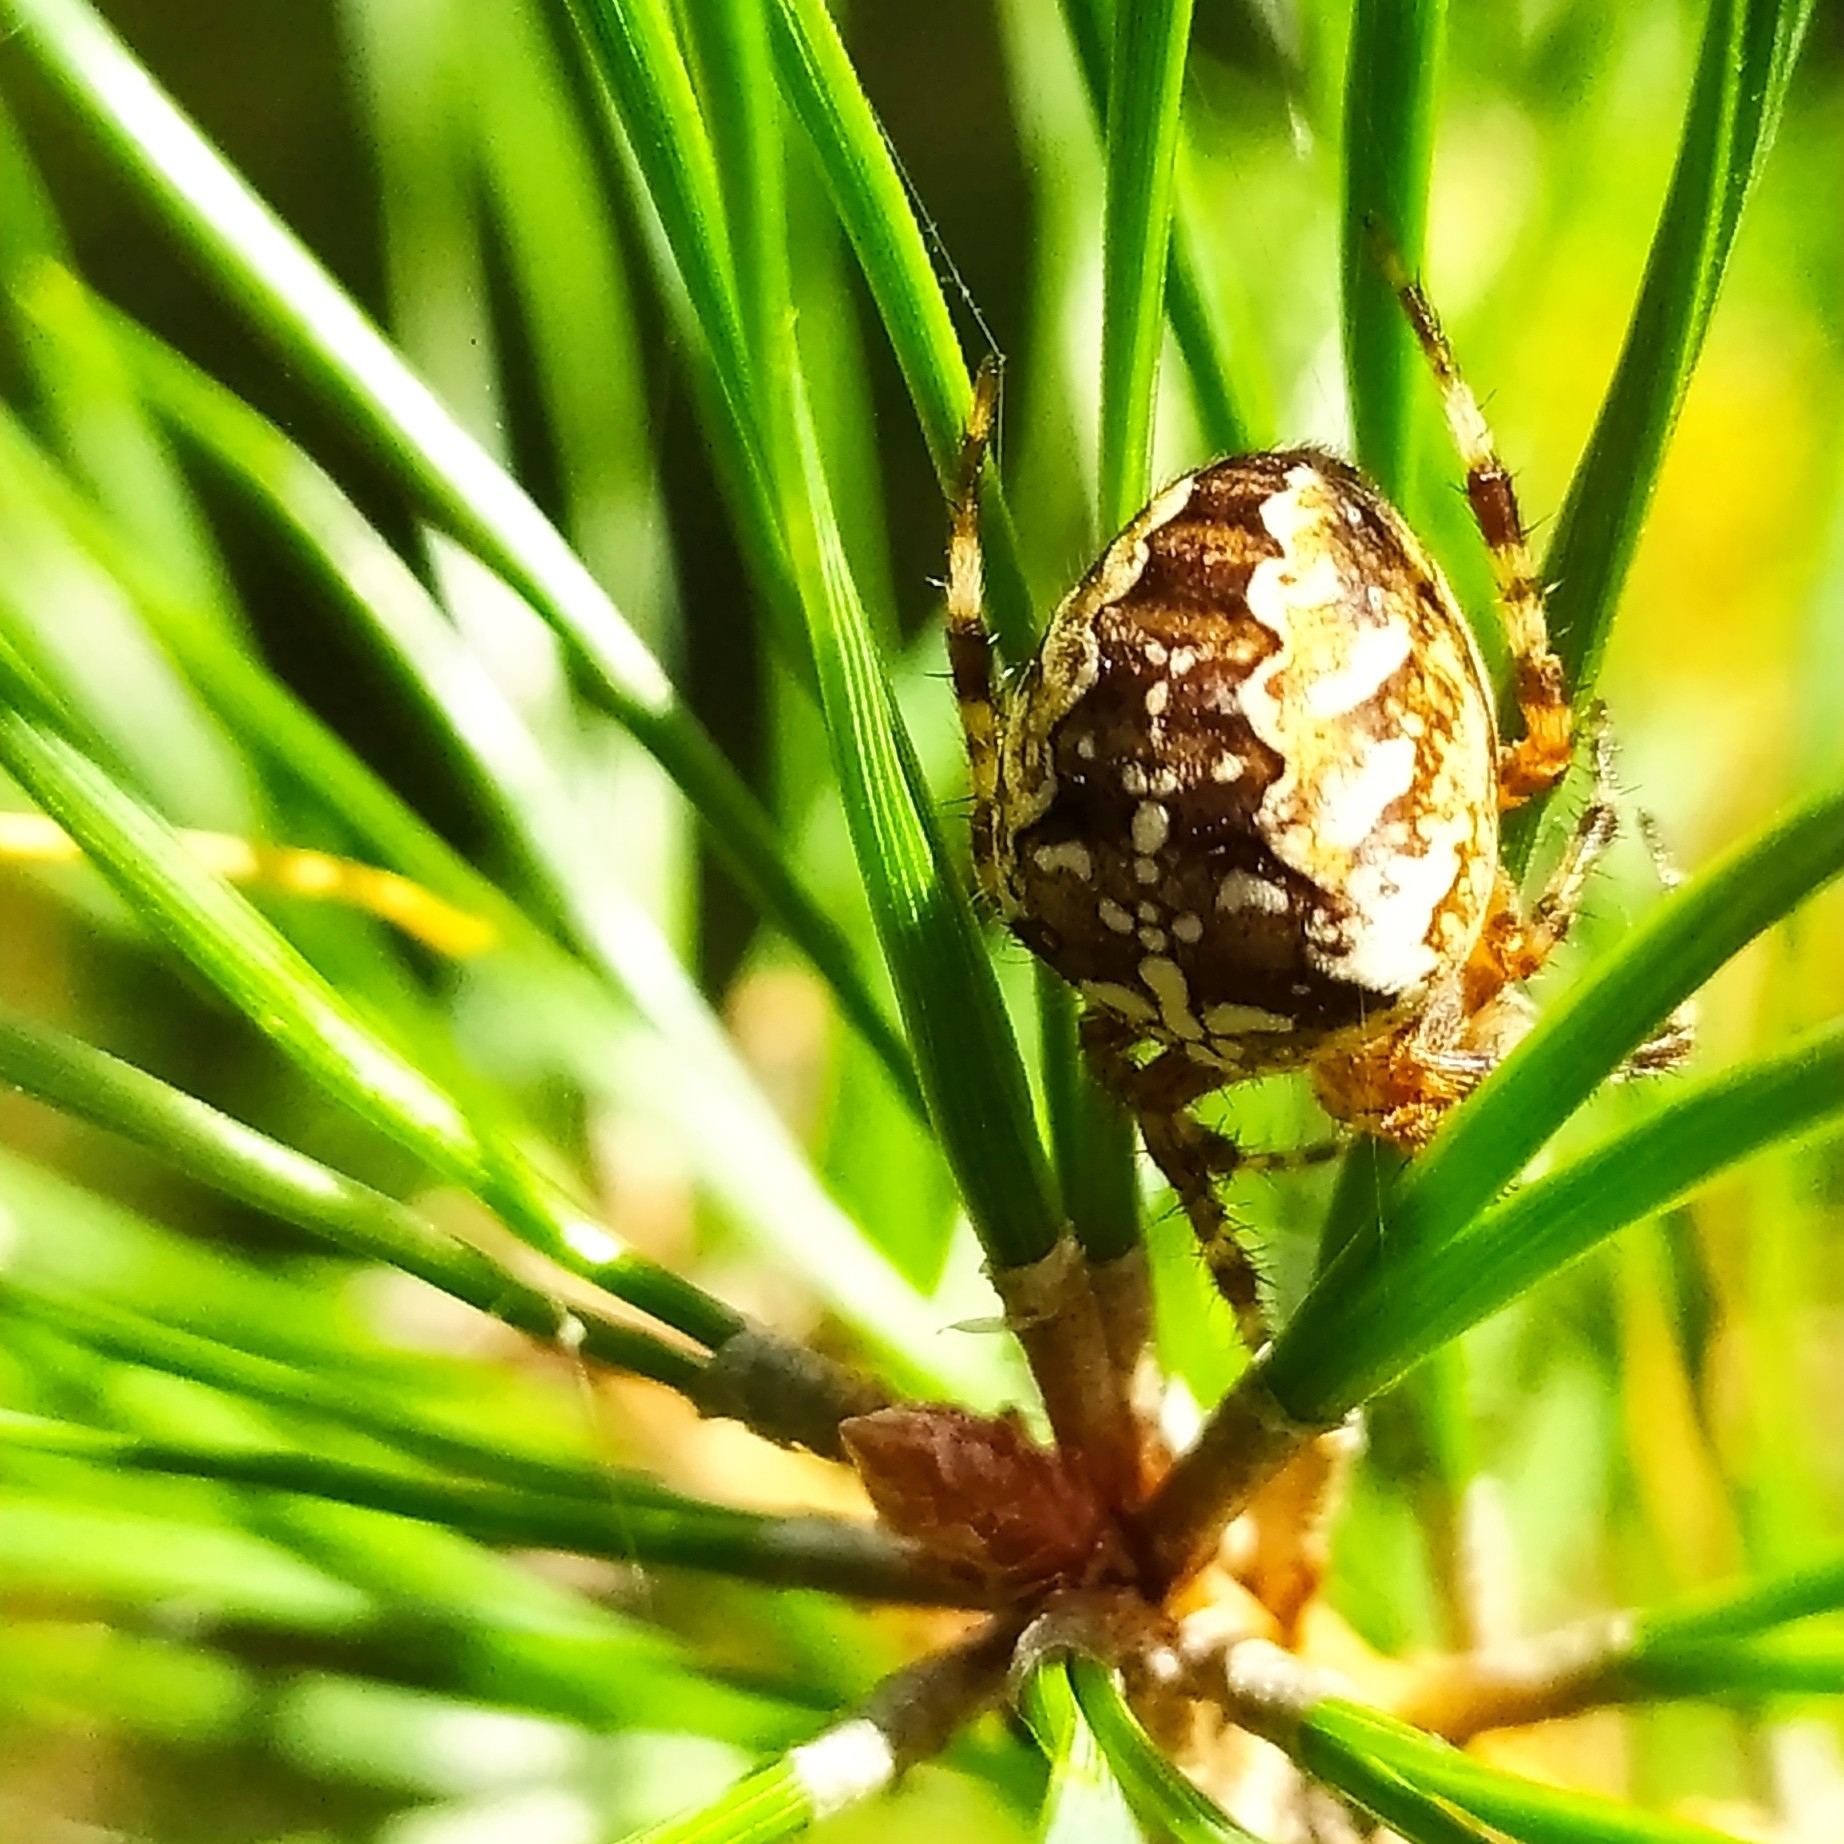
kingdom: Animalia
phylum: Arthropoda
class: Arachnida
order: Araneae
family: Araneidae
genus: Araneus
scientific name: Araneus diadematus
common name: Cross orbweaver
